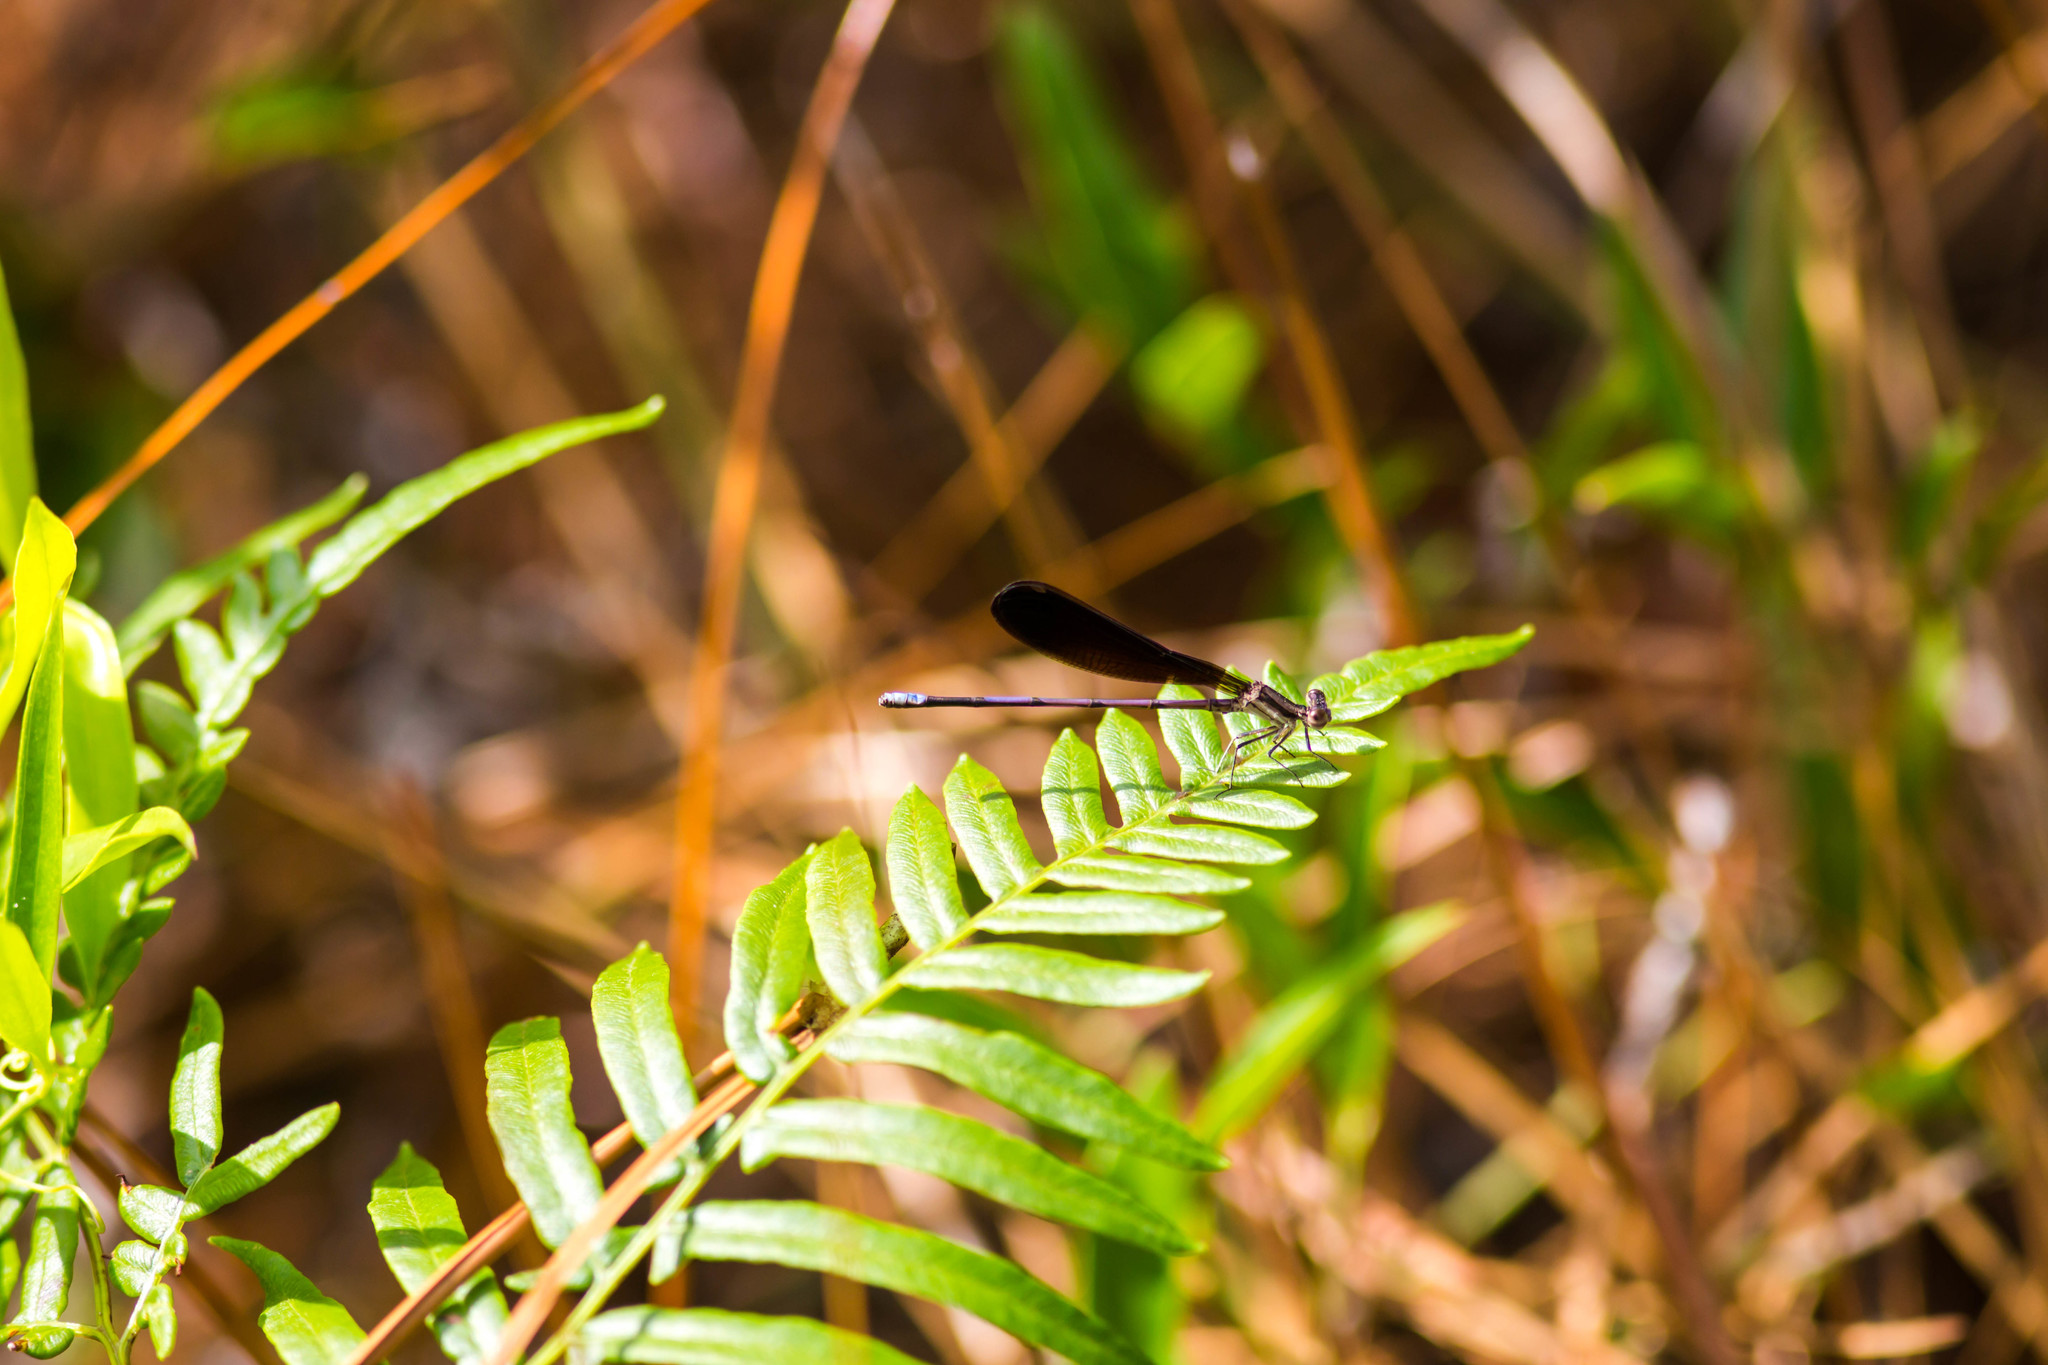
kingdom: Animalia
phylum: Arthropoda
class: Insecta
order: Odonata
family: Coenagrionidae
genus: Argia
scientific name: Argia fumipennis
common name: Variable dancer
